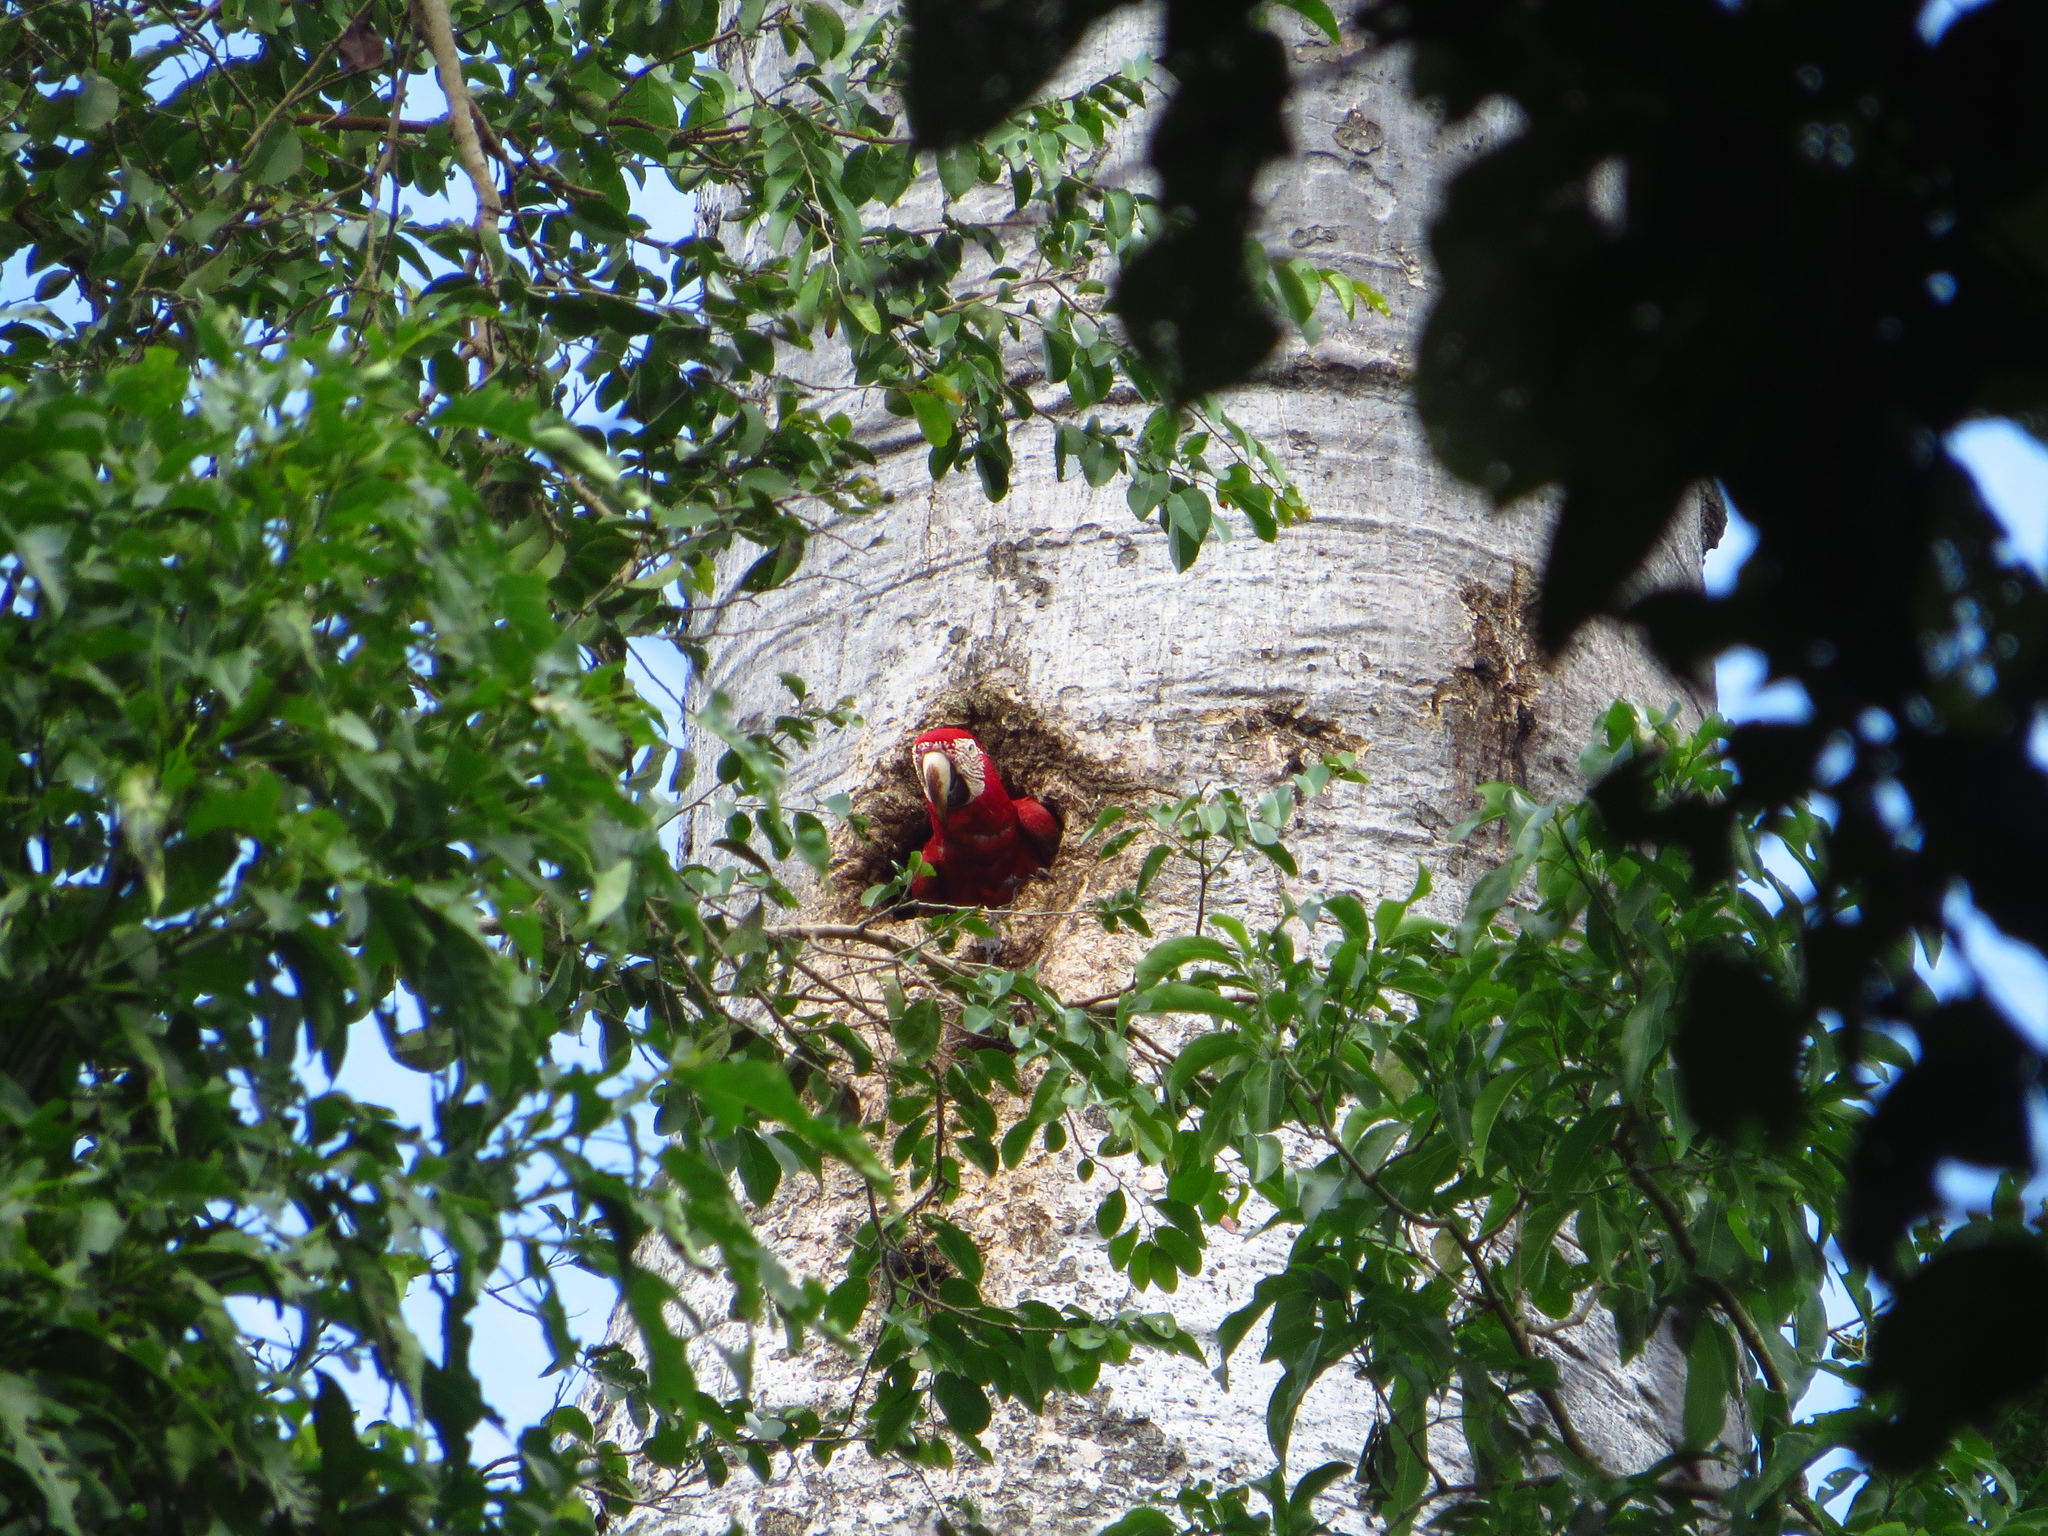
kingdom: Animalia
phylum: Chordata
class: Aves
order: Psittaciformes
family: Psittacidae
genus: Ara
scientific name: Ara macao
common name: Scarlet macaw
